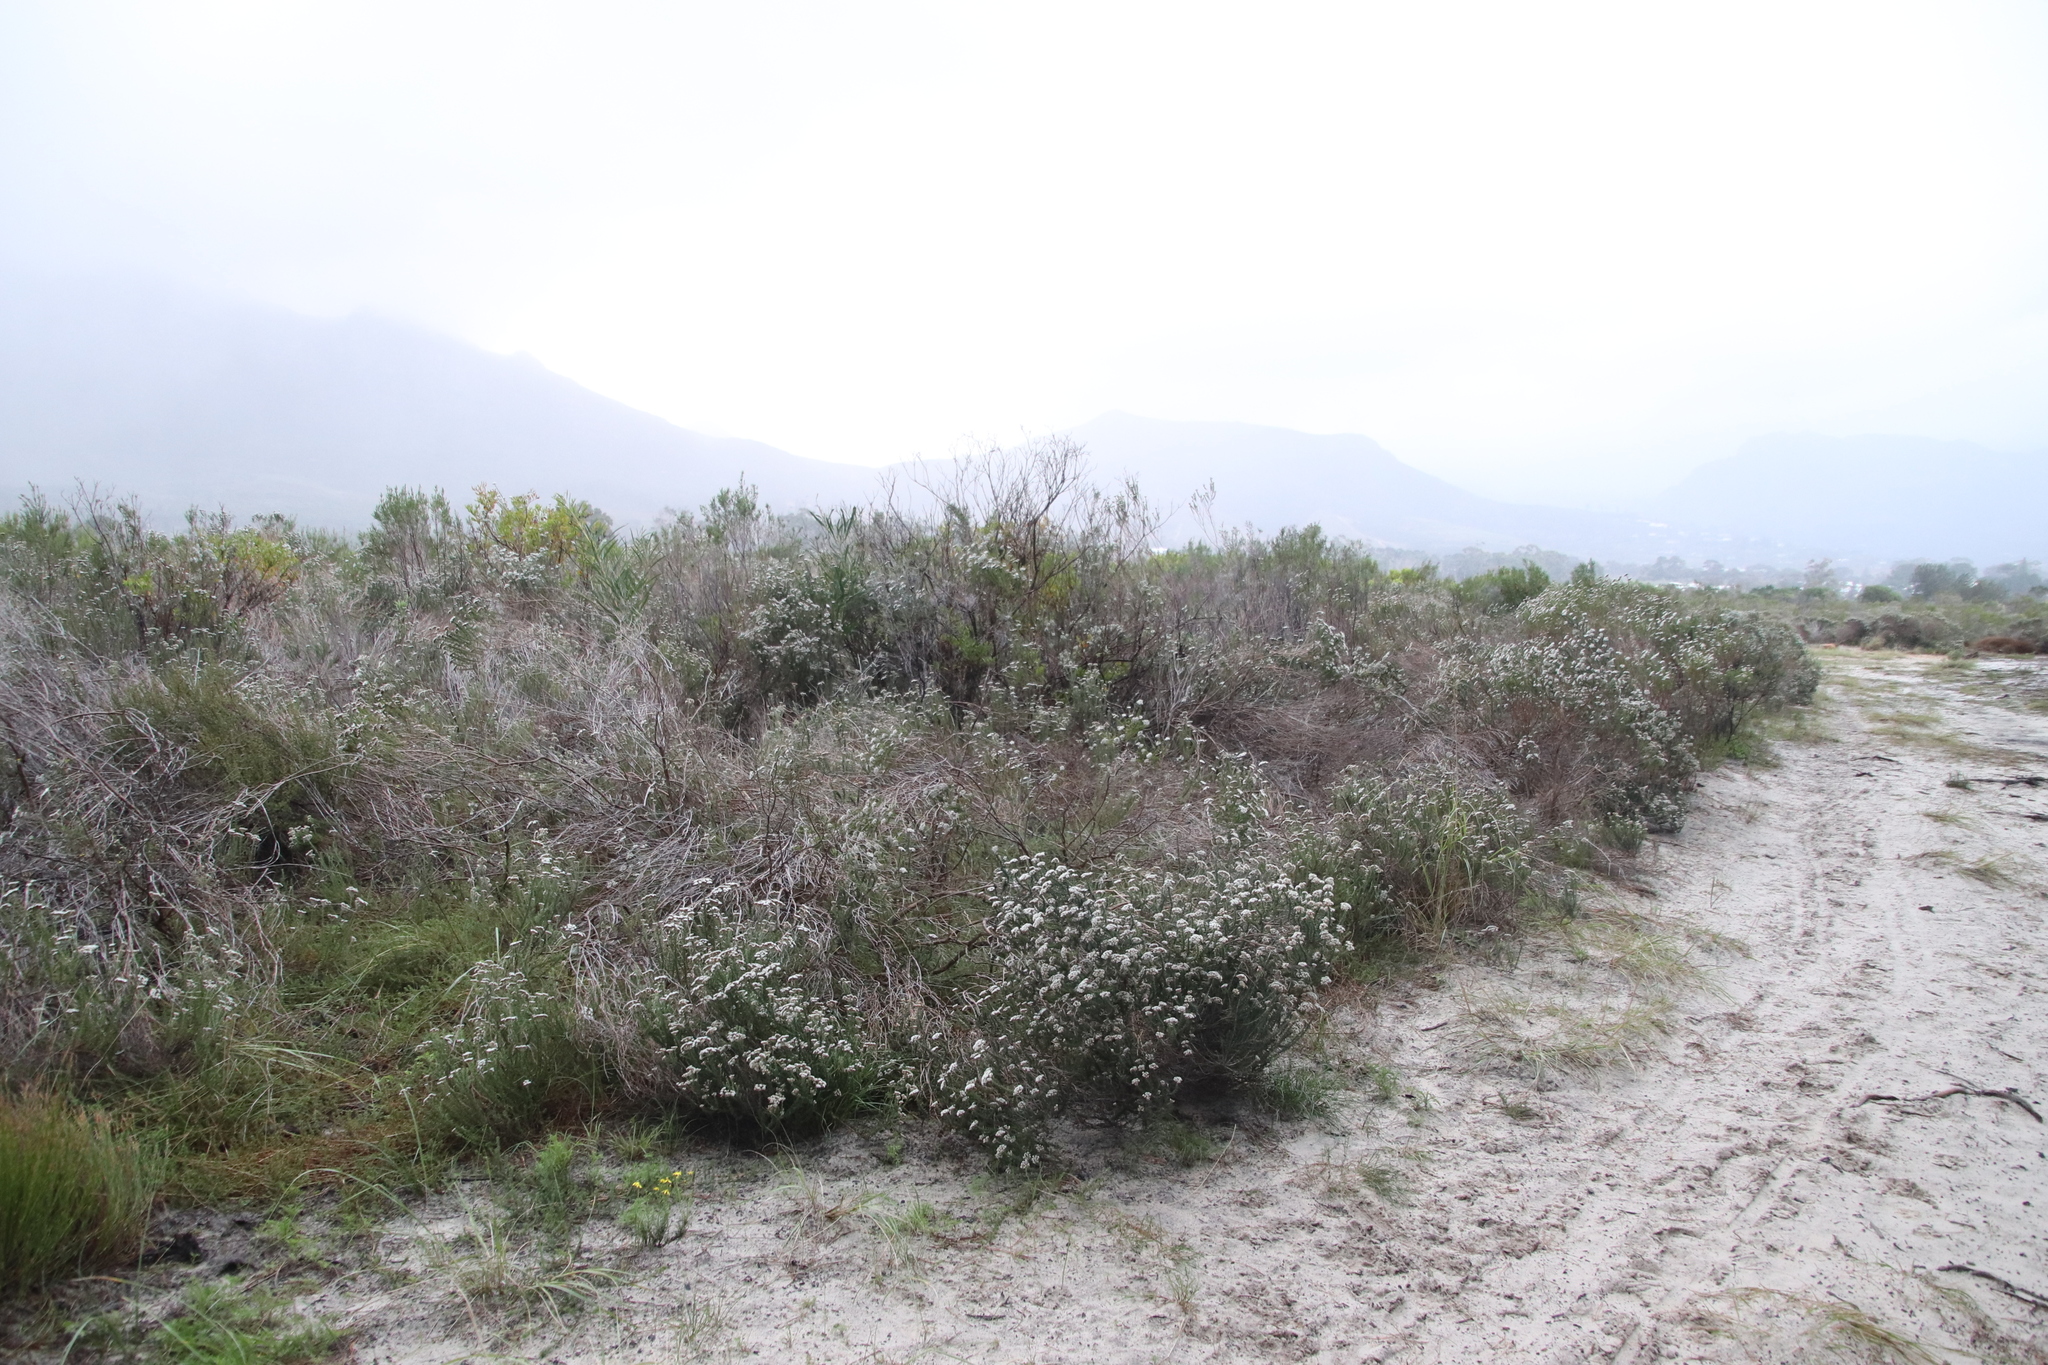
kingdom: Plantae
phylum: Tracheophyta
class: Magnoliopsida
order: Asterales
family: Asteraceae
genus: Metalasia
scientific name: Metalasia densa
